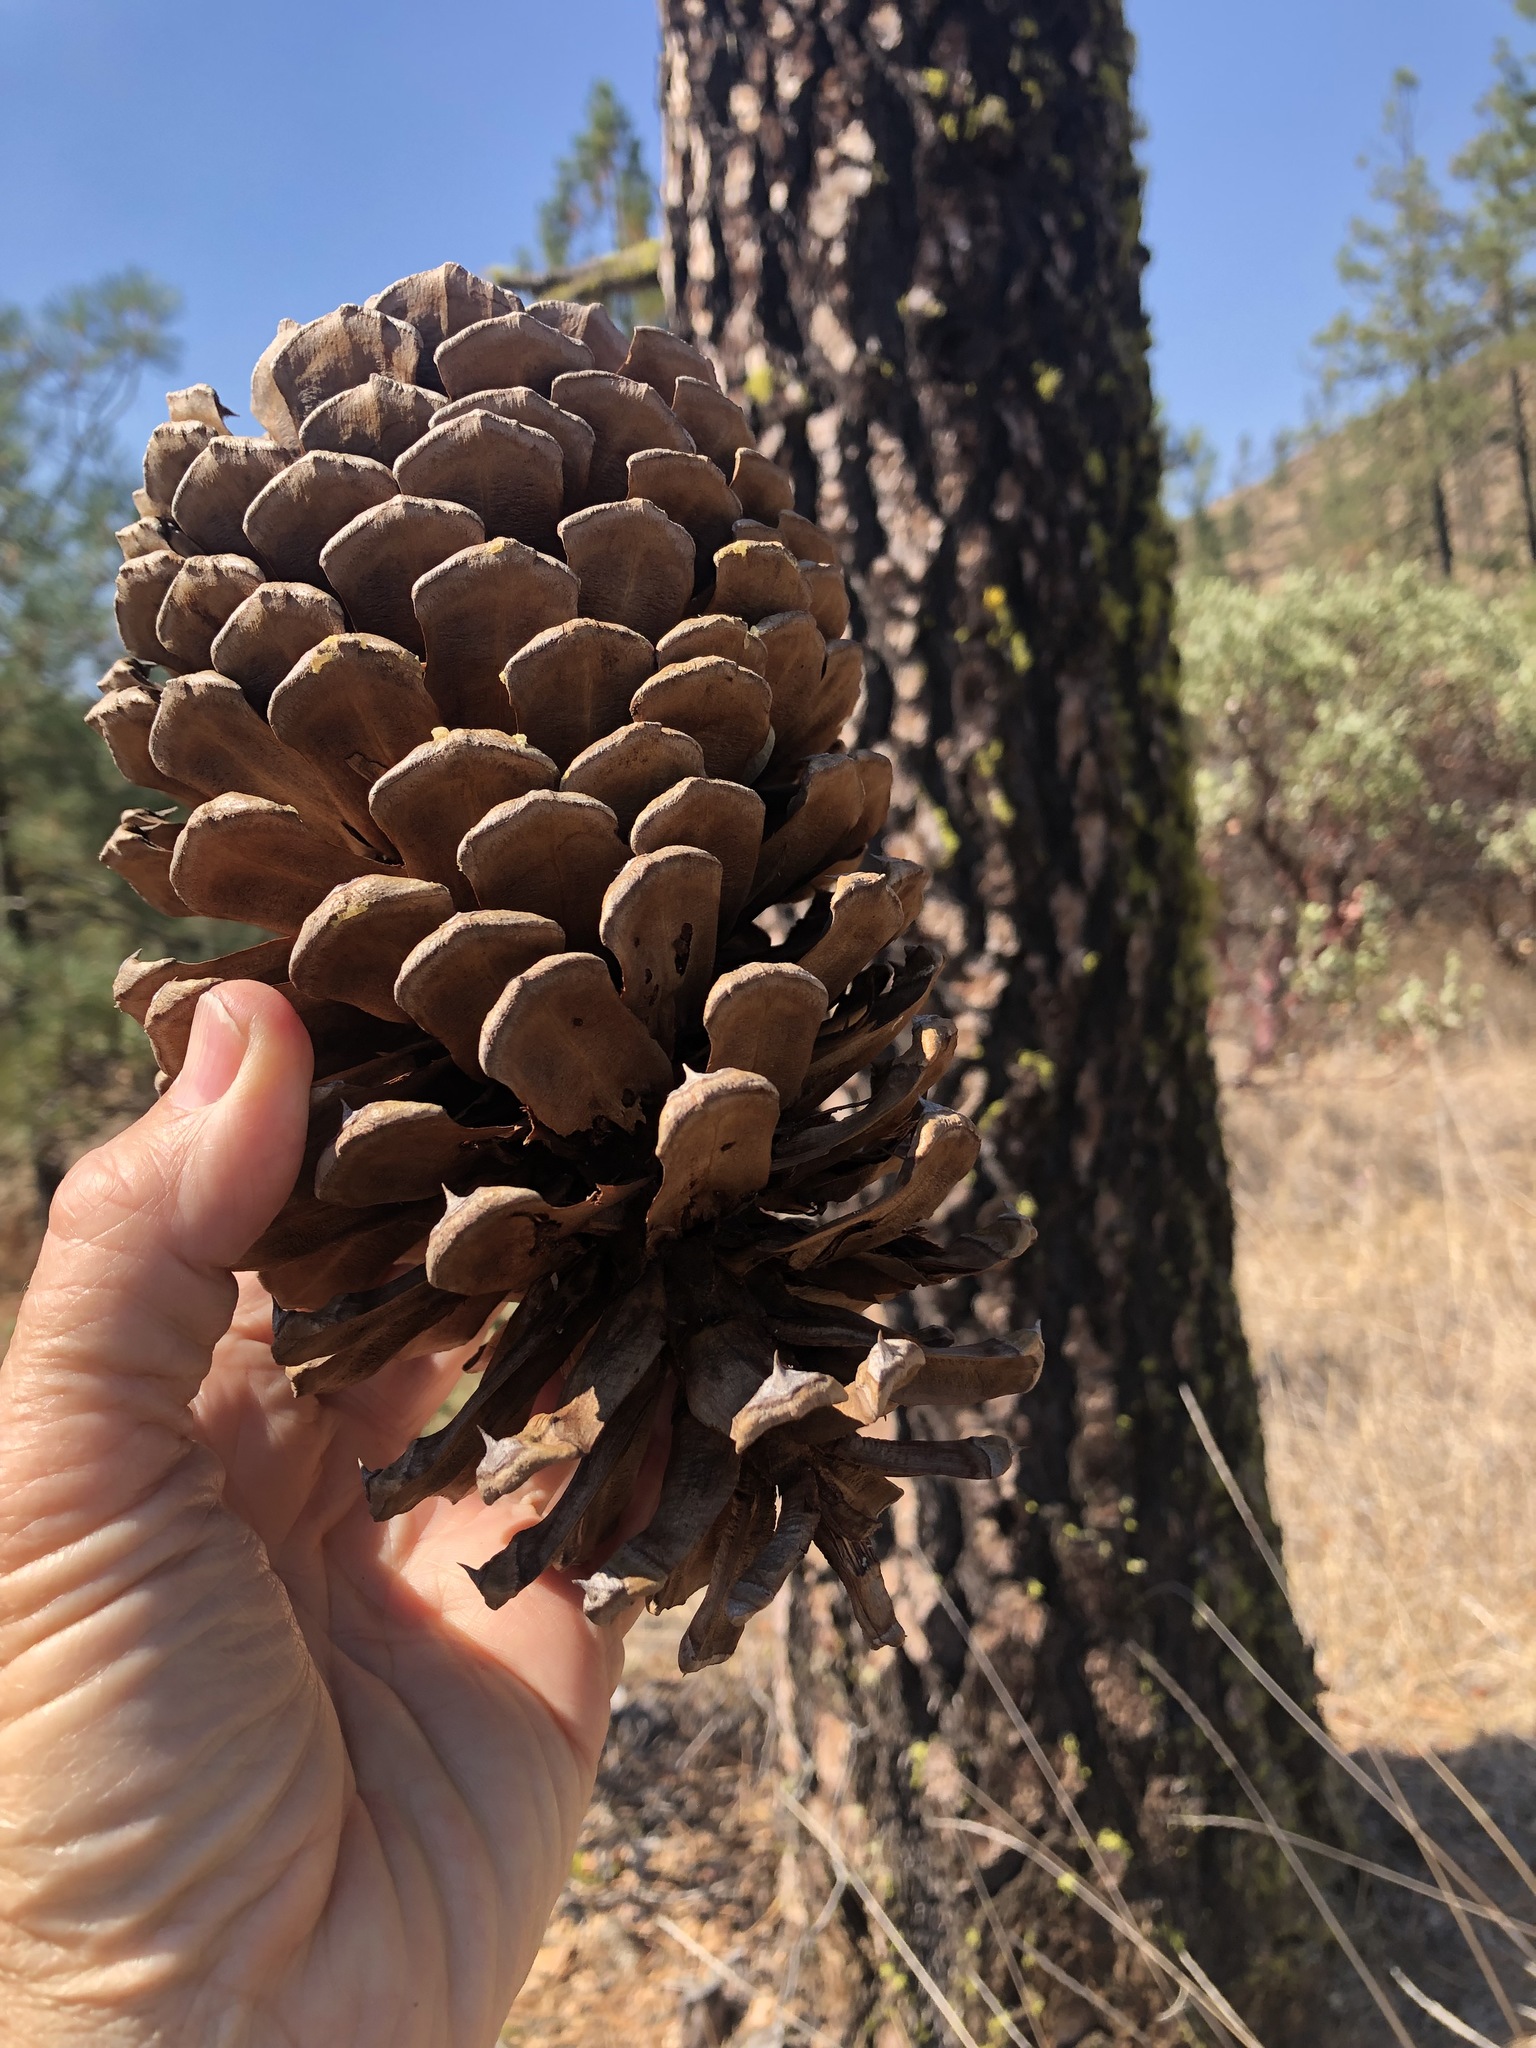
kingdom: Plantae
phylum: Tracheophyta
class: Pinopsida
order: Pinales
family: Pinaceae
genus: Pinus
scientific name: Pinus jeffreyi
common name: Jeffrey pine
